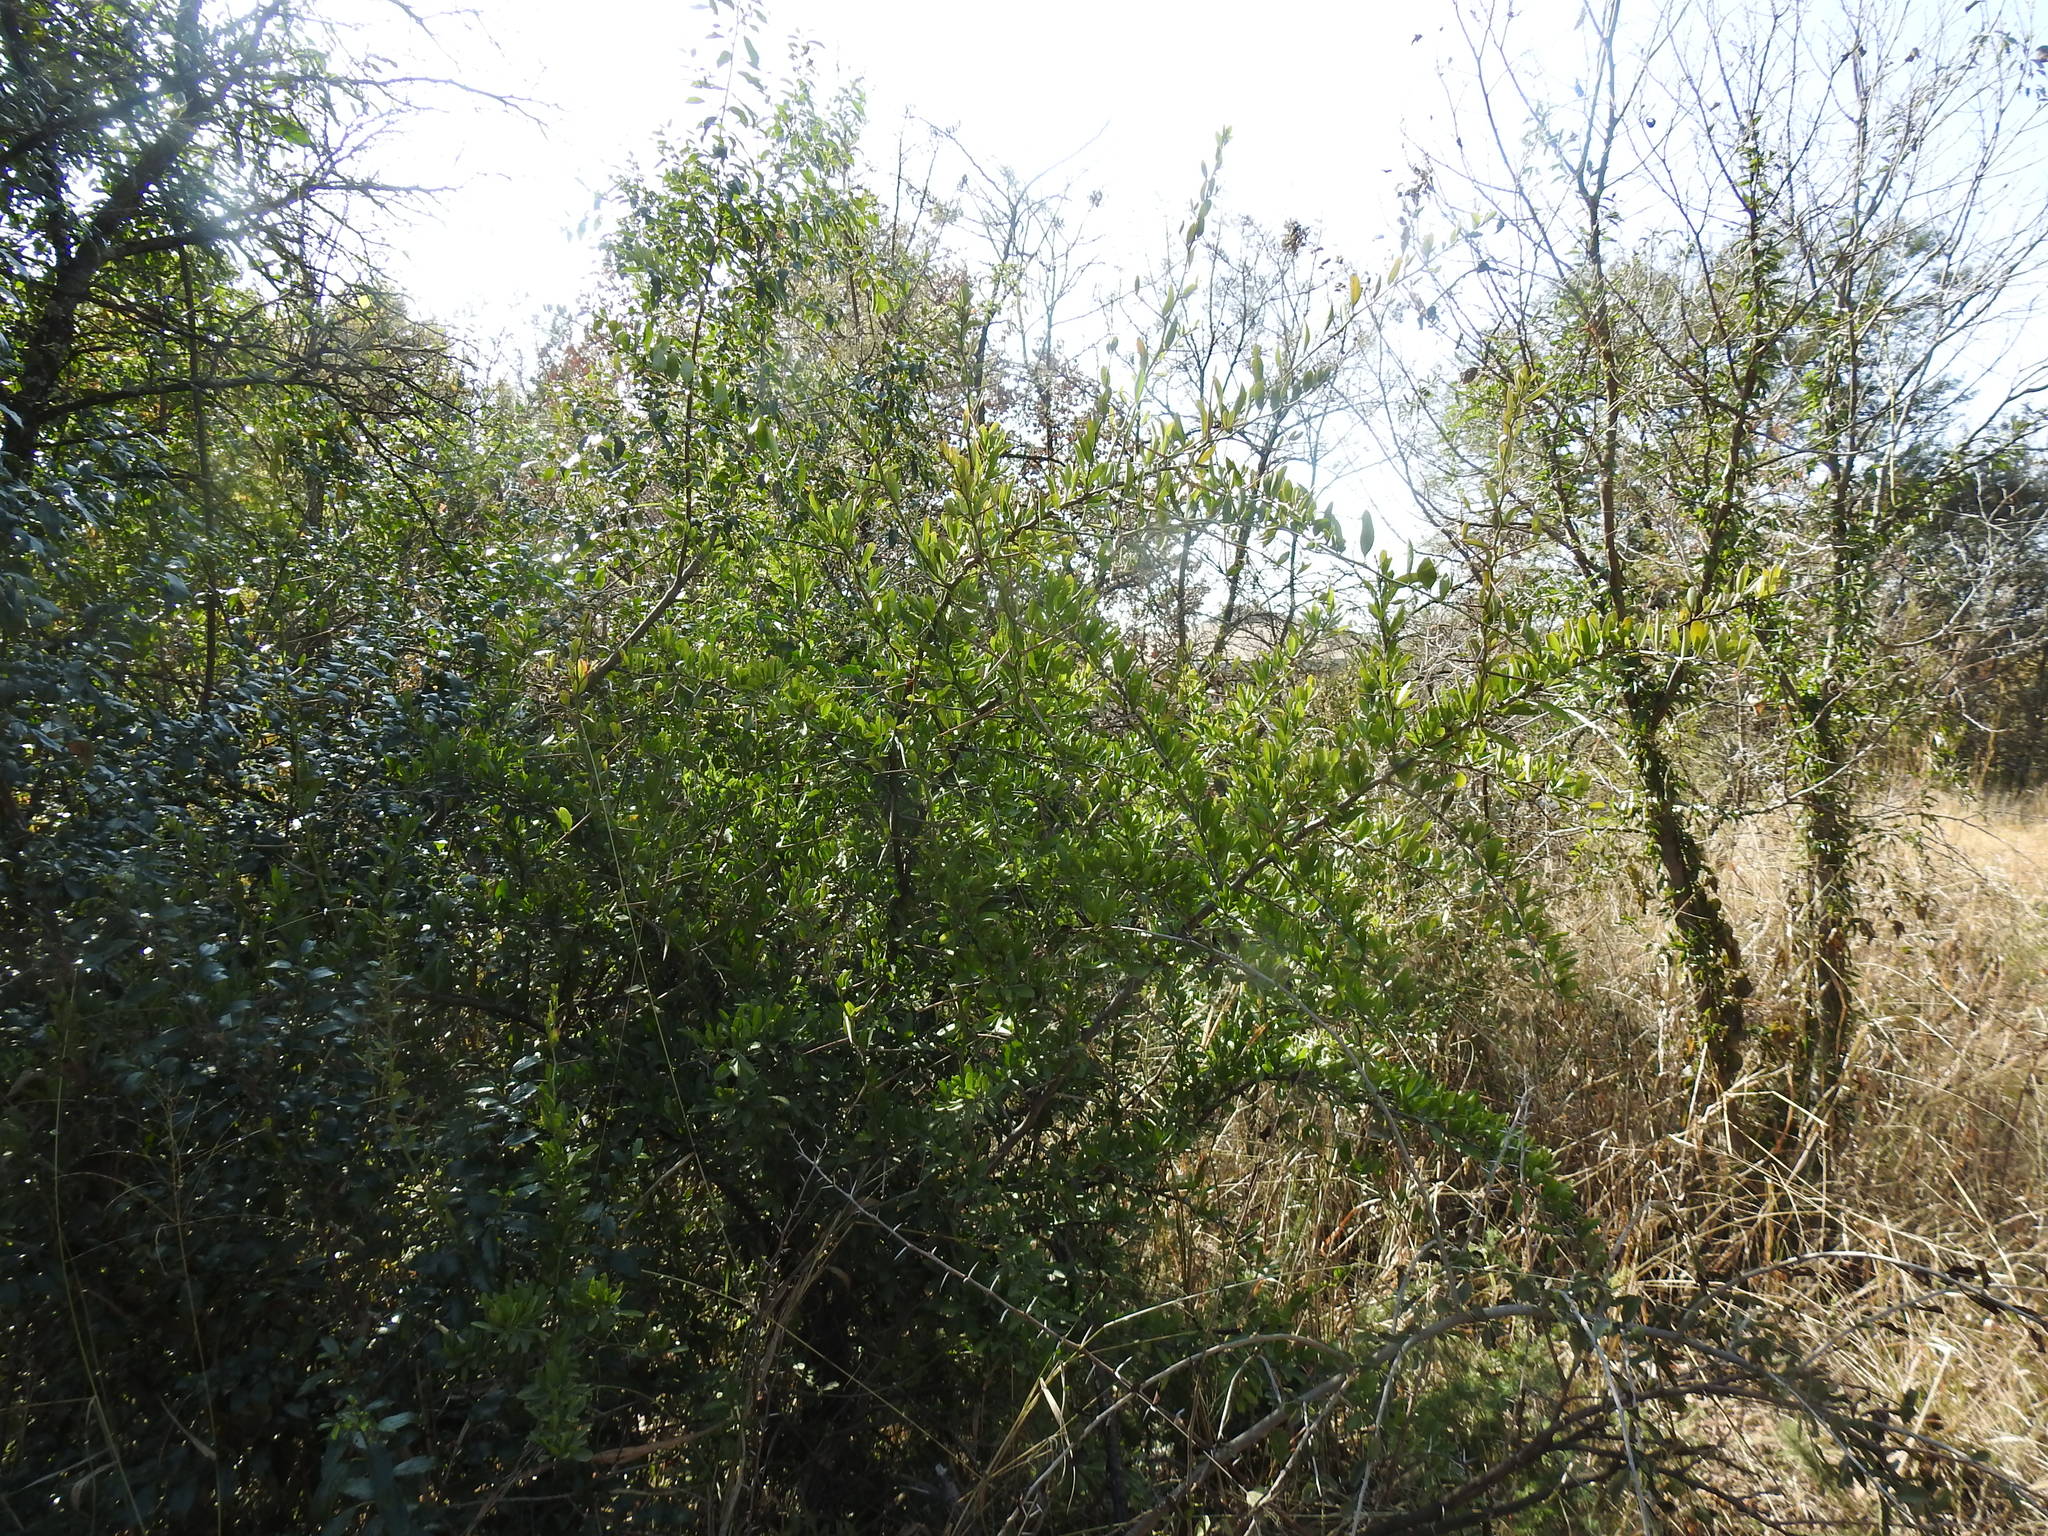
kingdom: Plantae
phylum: Tracheophyta
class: Magnoliopsida
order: Celastrales
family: Celastraceae
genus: Gymnosporia
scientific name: Gymnosporia buxifolia
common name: Common spike-thorn
